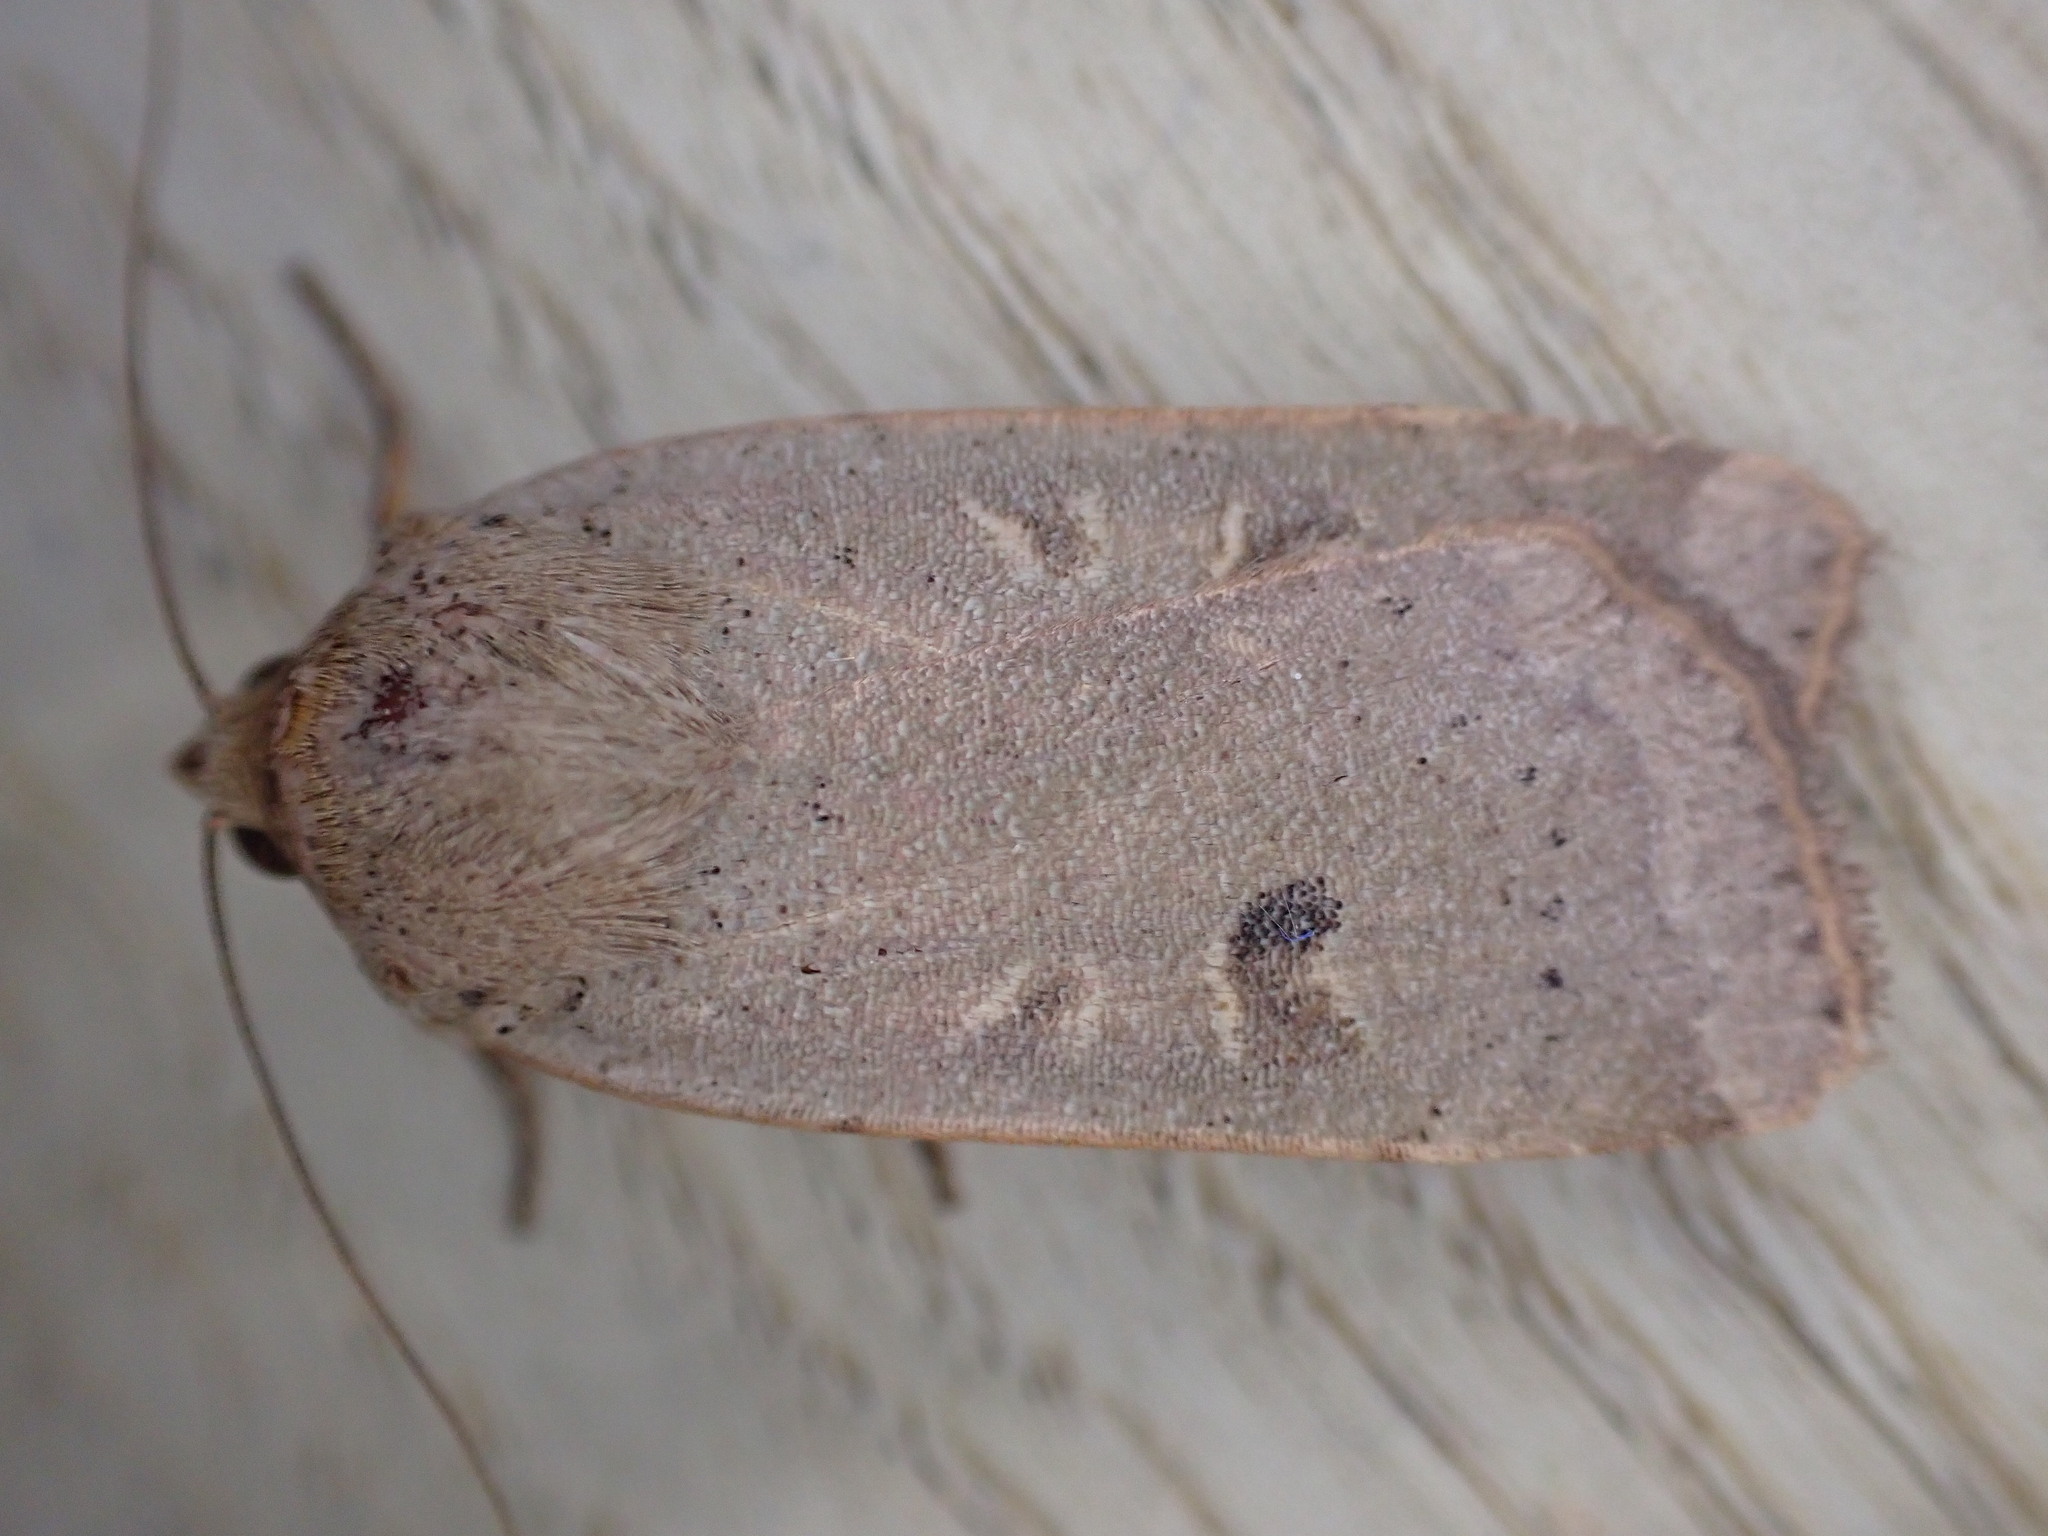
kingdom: Animalia
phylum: Arthropoda
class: Insecta
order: Lepidoptera
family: Noctuidae
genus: Noctua
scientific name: Noctua comes
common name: Lesser yellow underwing
